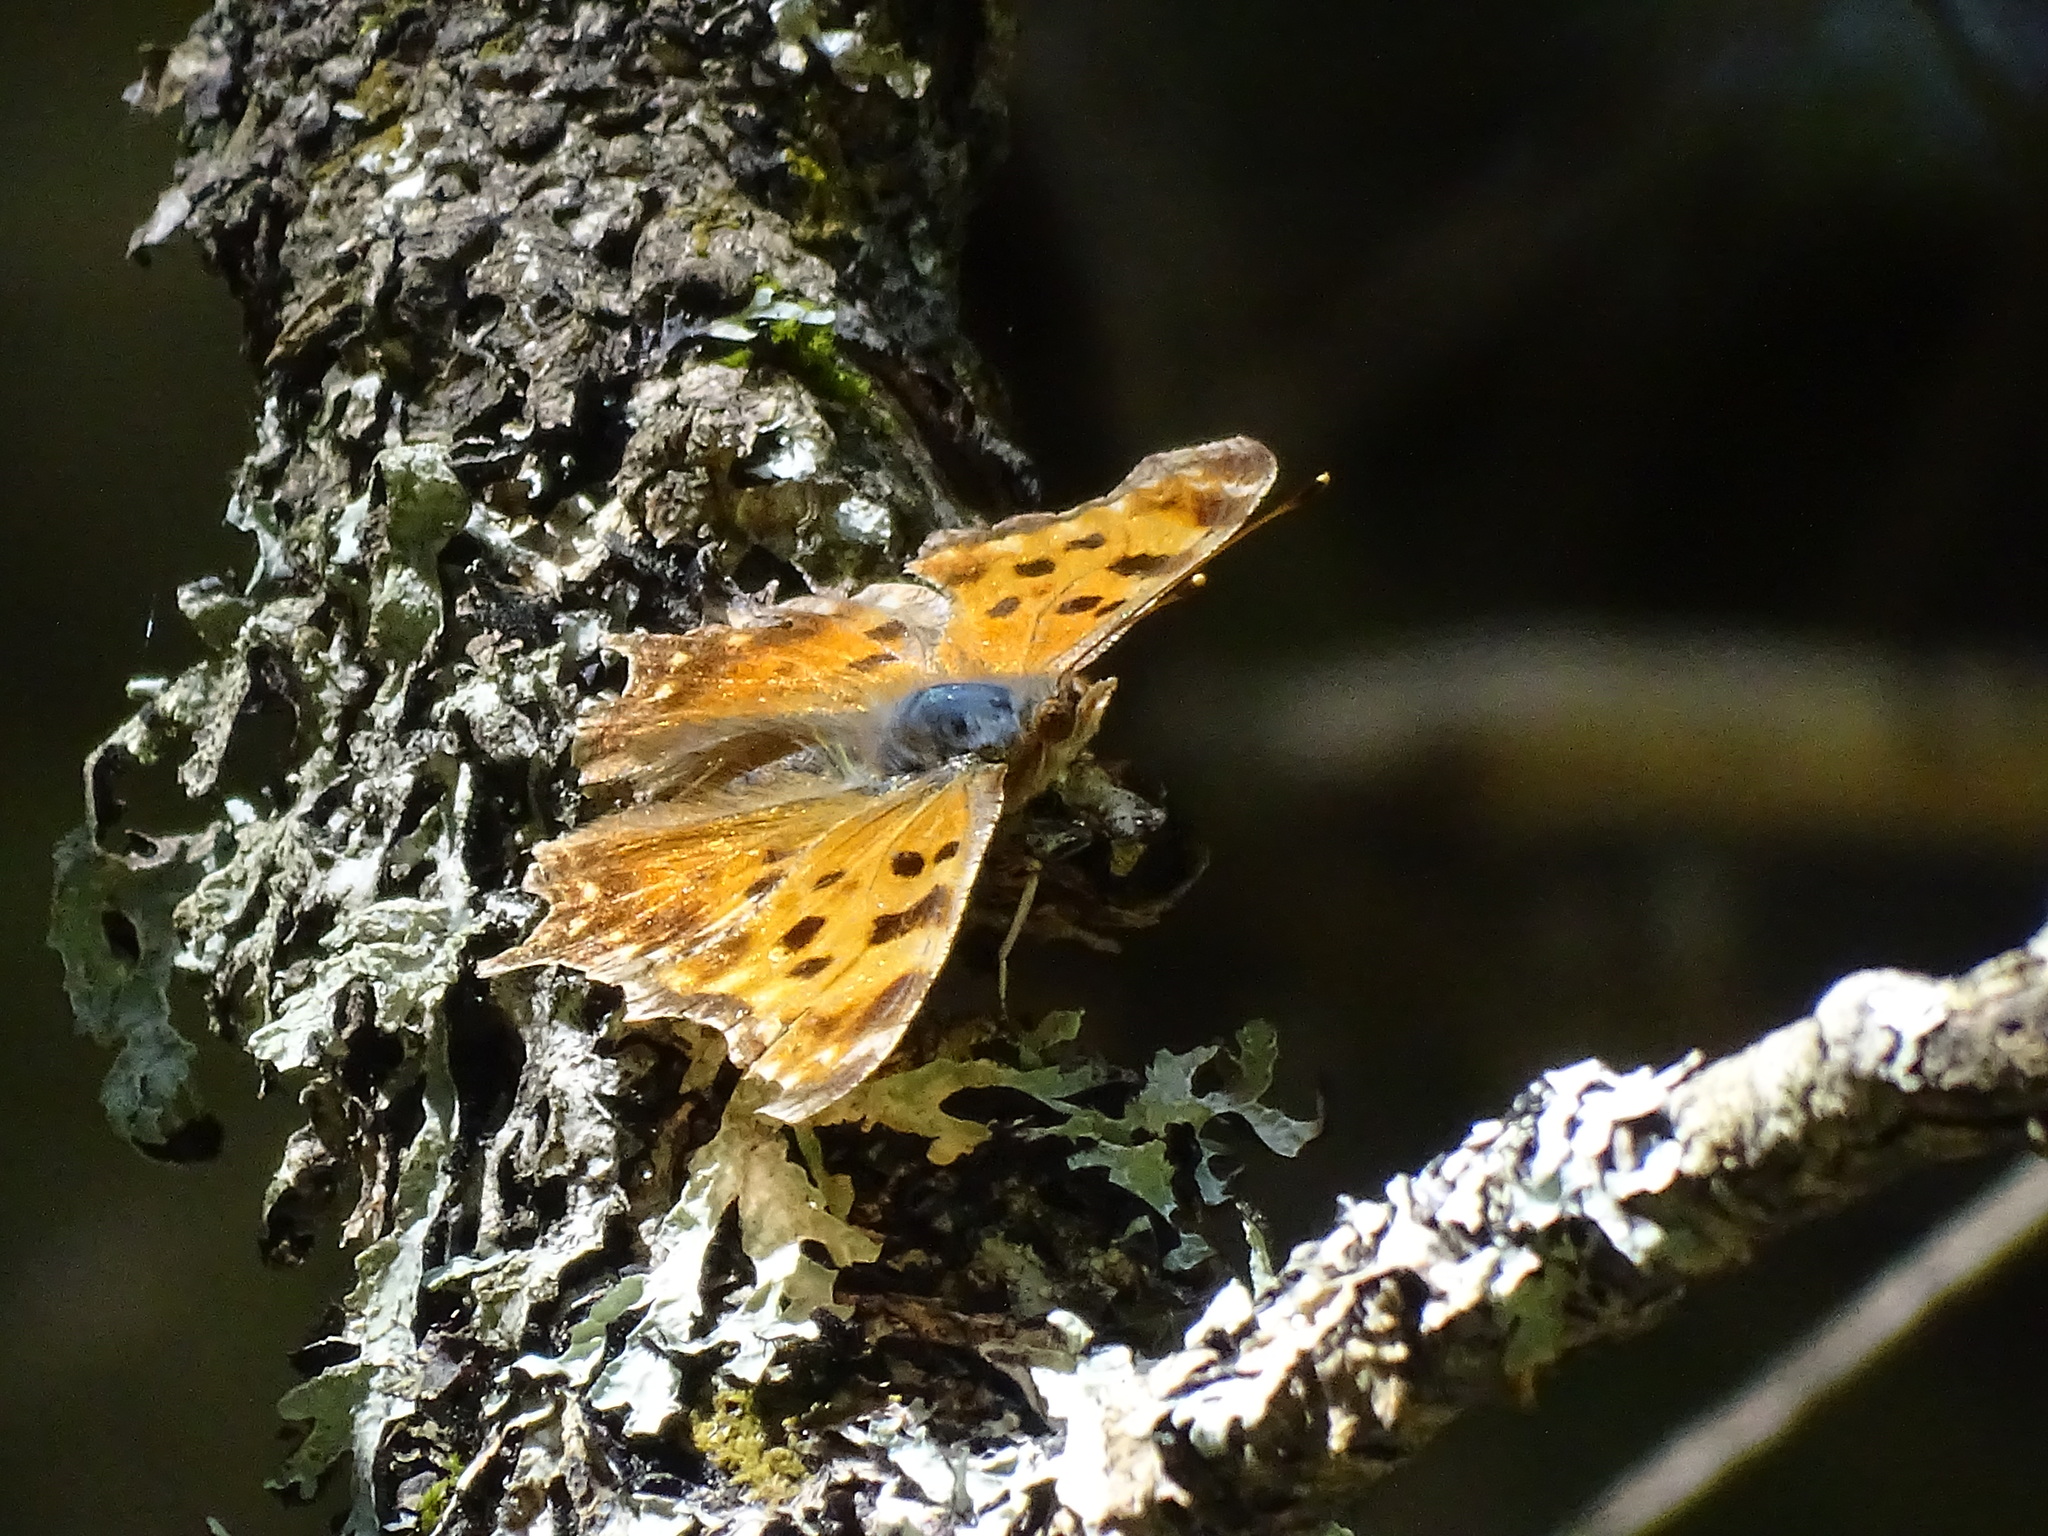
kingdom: Animalia
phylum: Arthropoda
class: Insecta
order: Lepidoptera
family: Nymphalidae
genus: Polygonia
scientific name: Polygonia faunus
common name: Green comma
